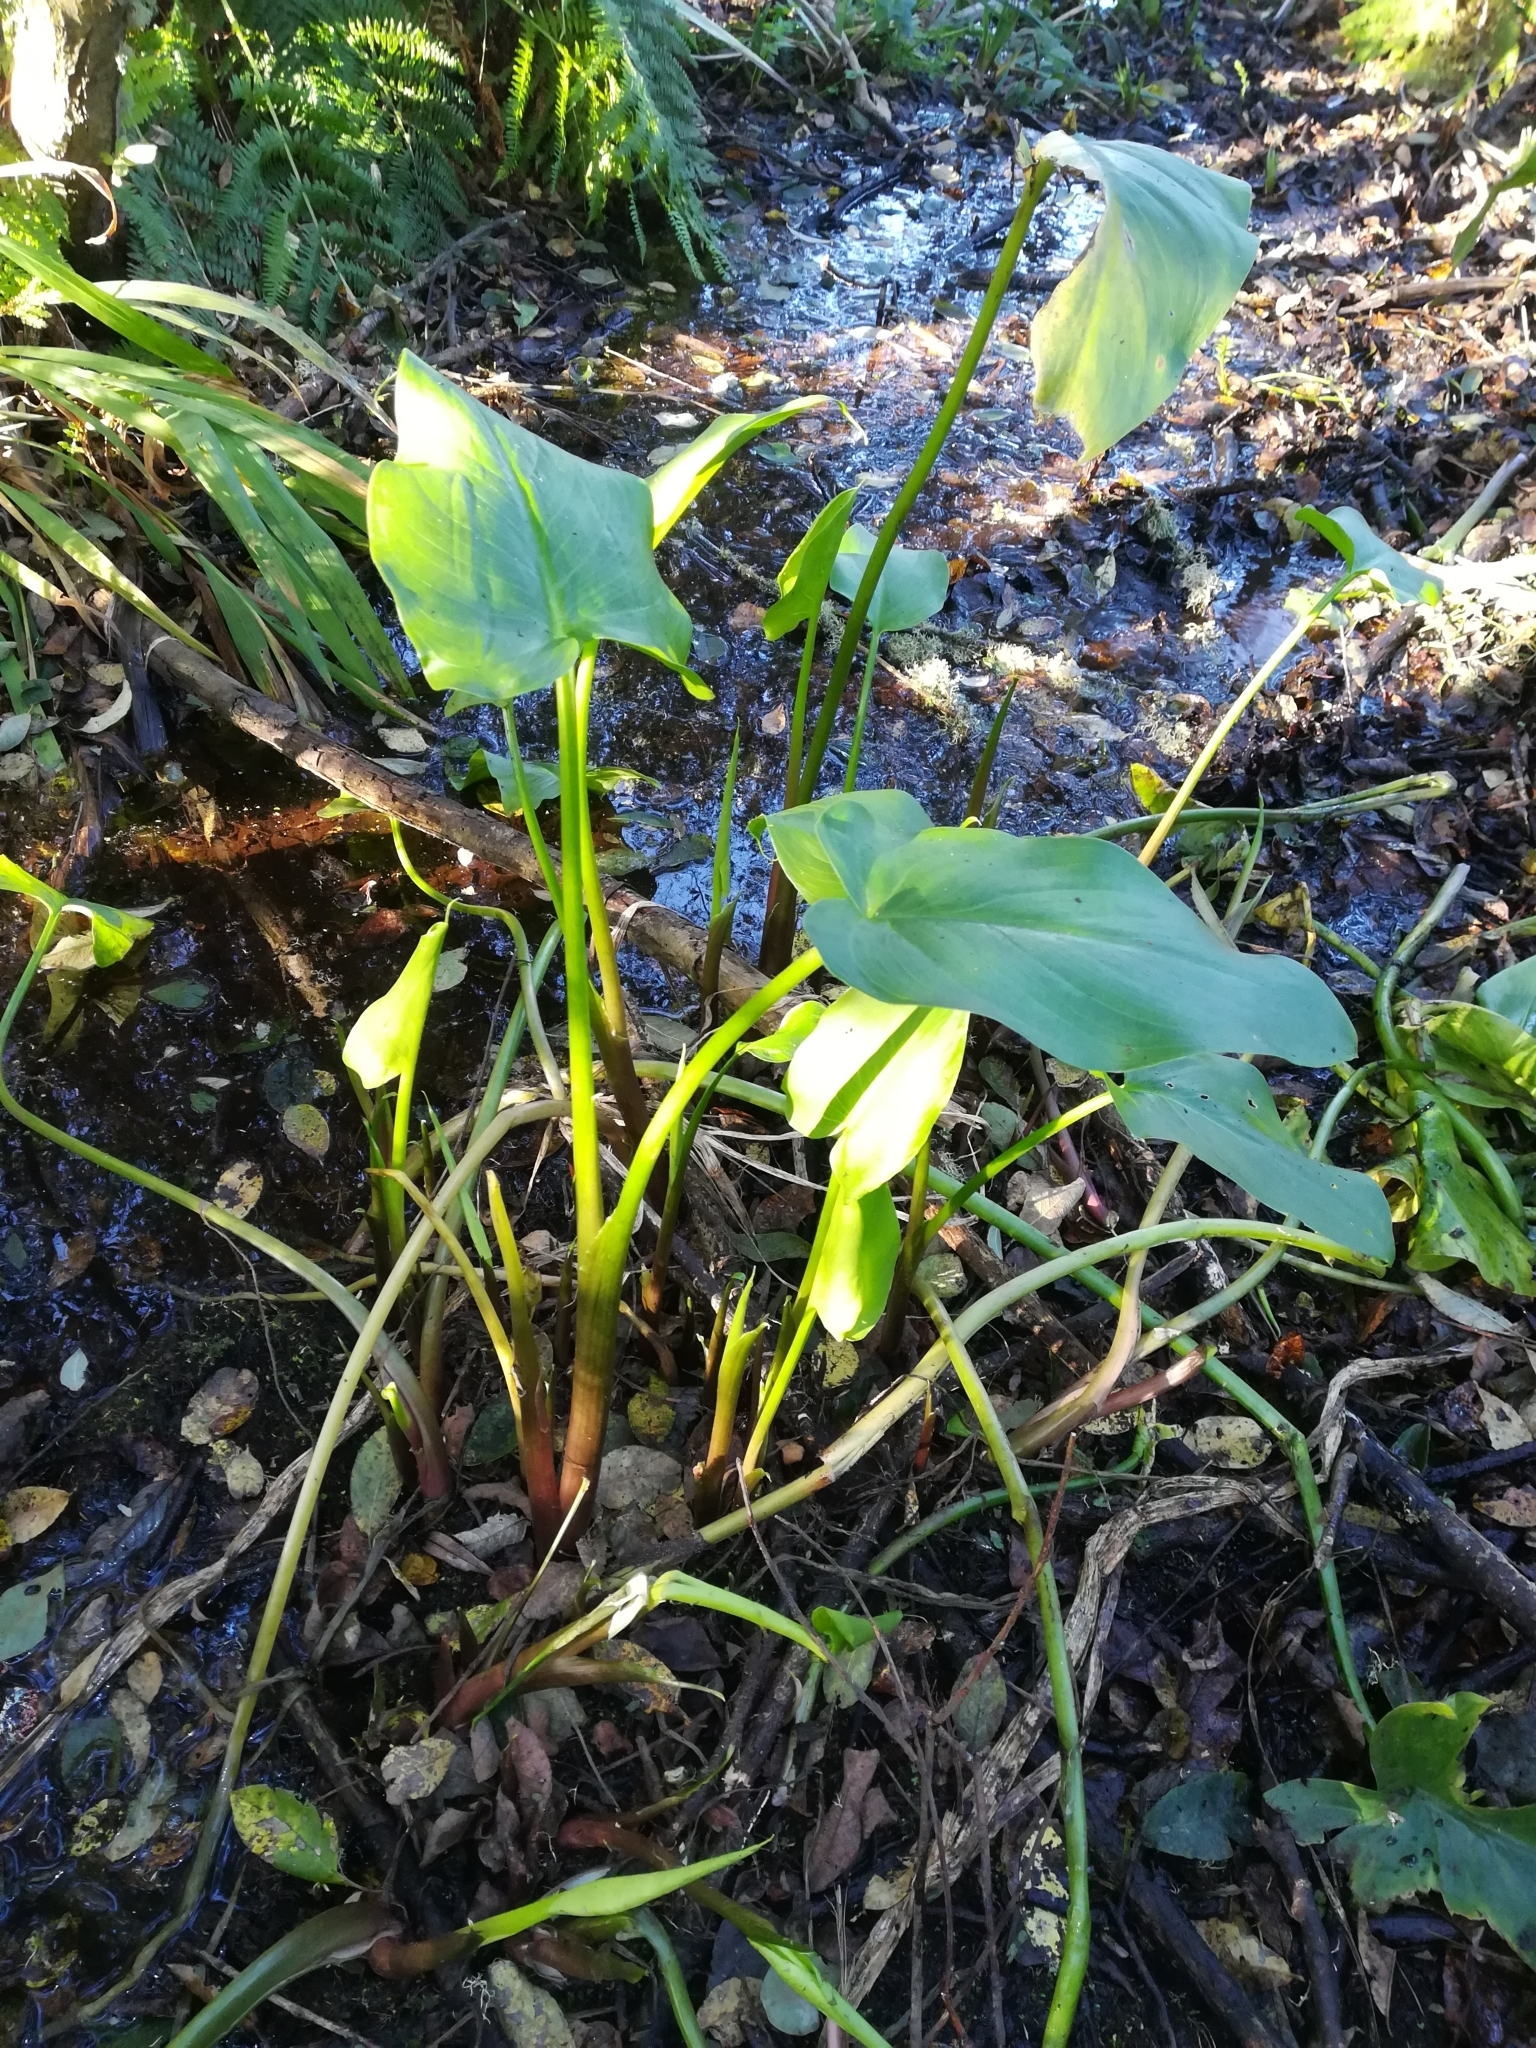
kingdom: Plantae
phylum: Tracheophyta
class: Liliopsida
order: Alismatales
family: Araceae
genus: Zantedeschia
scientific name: Zantedeschia aethiopica
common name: Altar-lily
